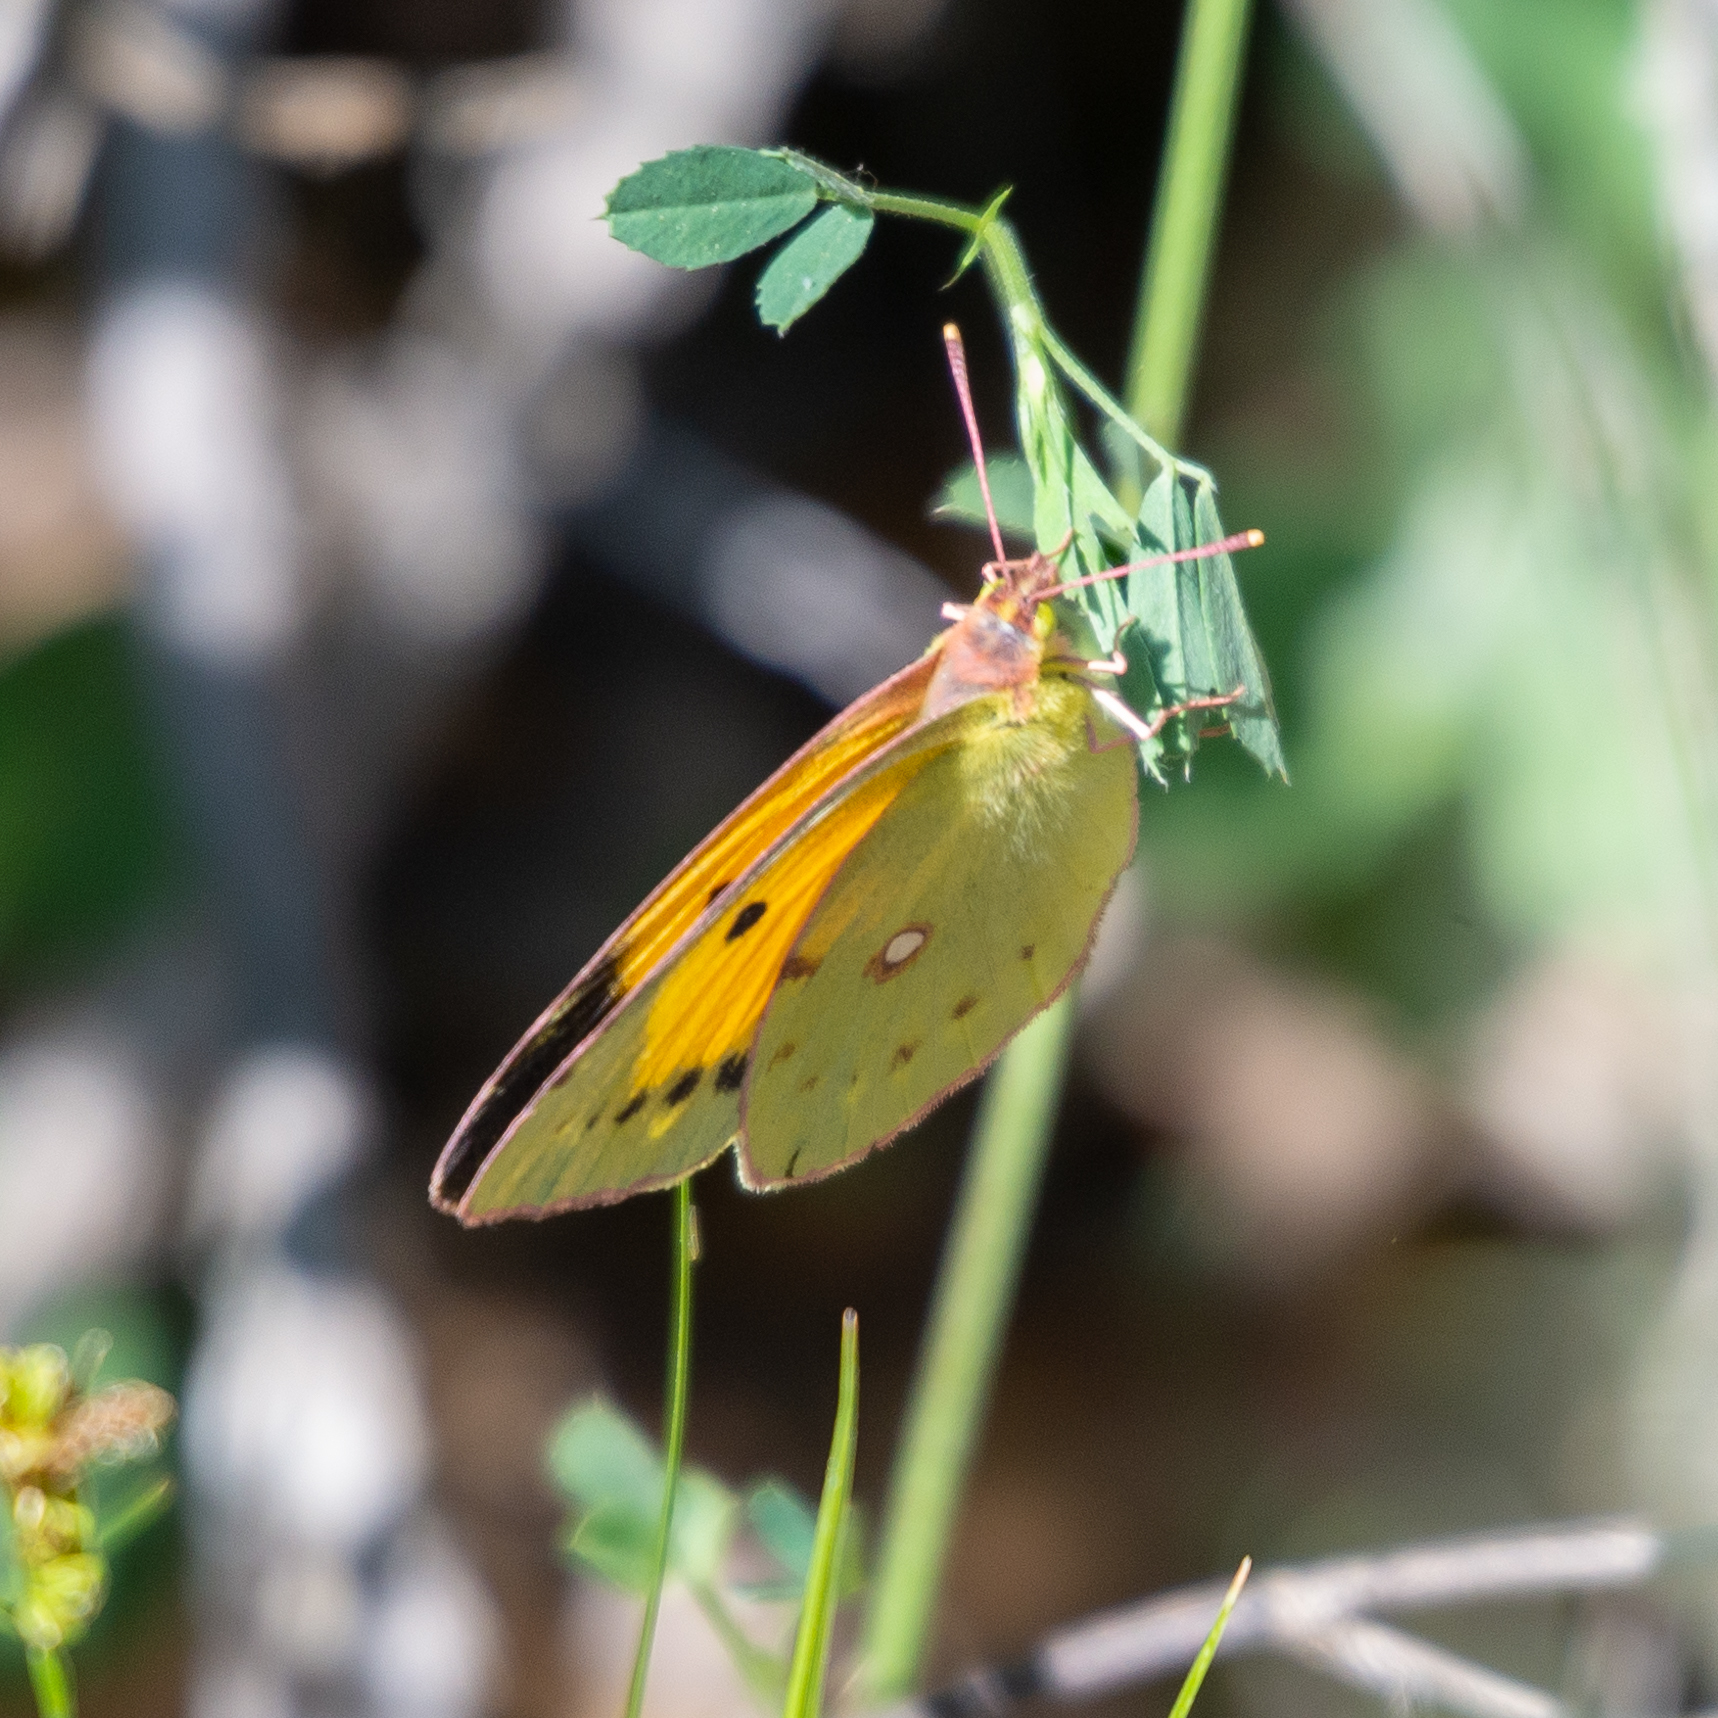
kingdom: Animalia
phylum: Arthropoda
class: Insecta
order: Lepidoptera
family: Pieridae
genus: Colias
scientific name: Colias croceus
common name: Clouded yellow
